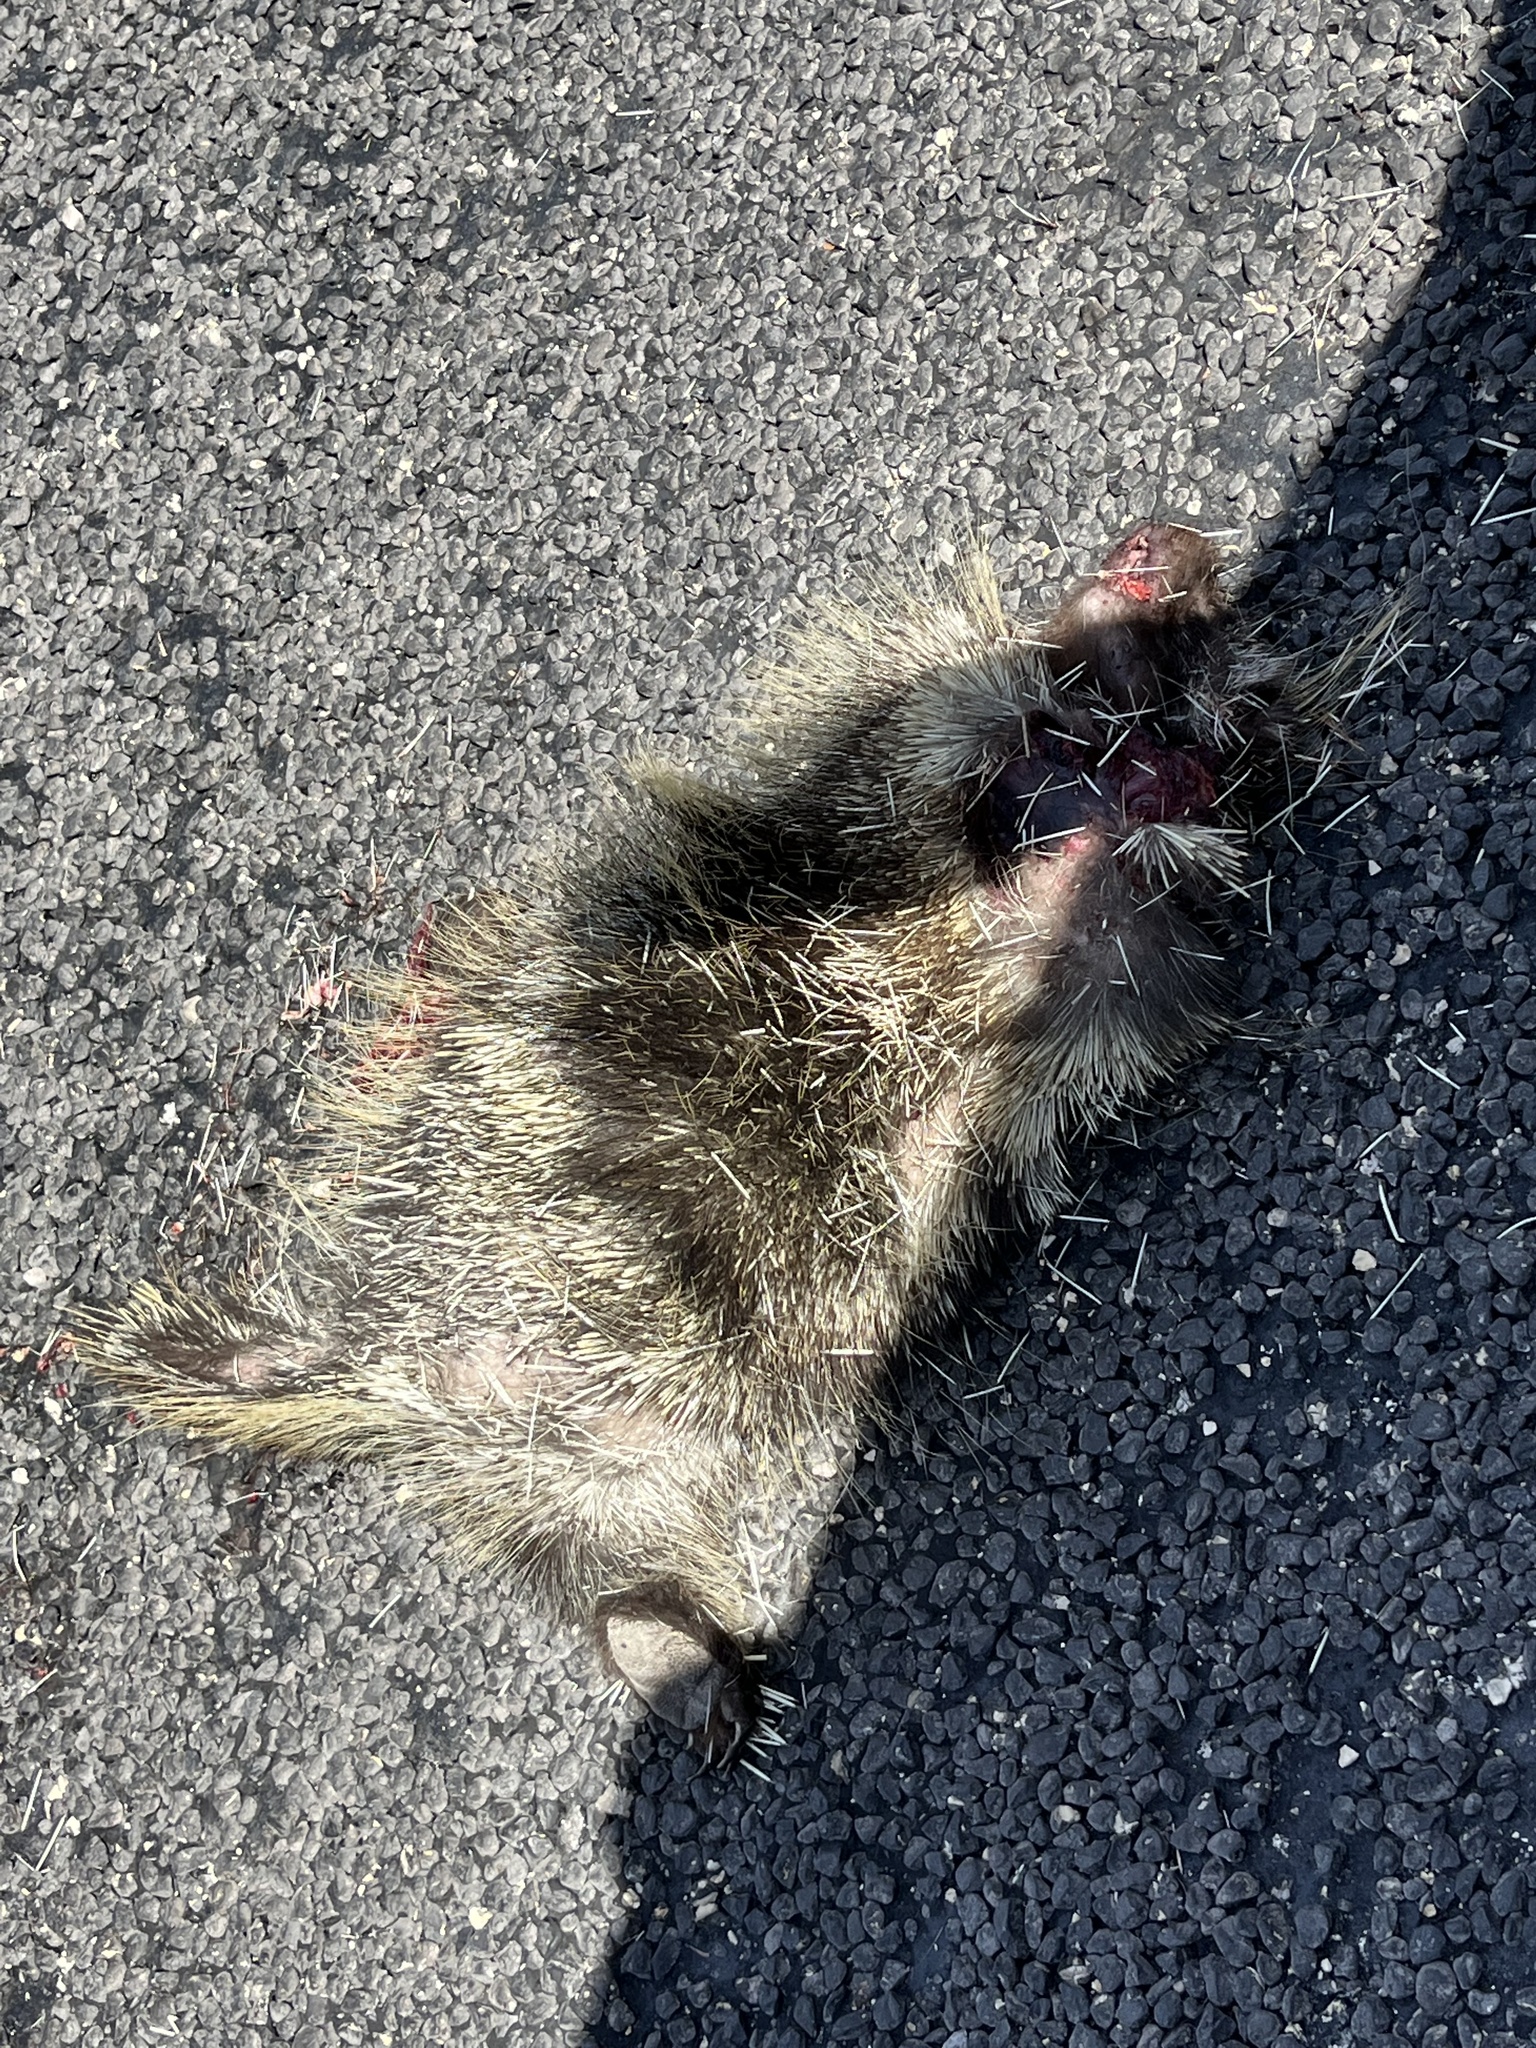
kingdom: Animalia
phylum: Chordata
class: Mammalia
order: Rodentia
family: Erethizontidae
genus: Erethizon
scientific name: Erethizon dorsatus
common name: North american porcupine
